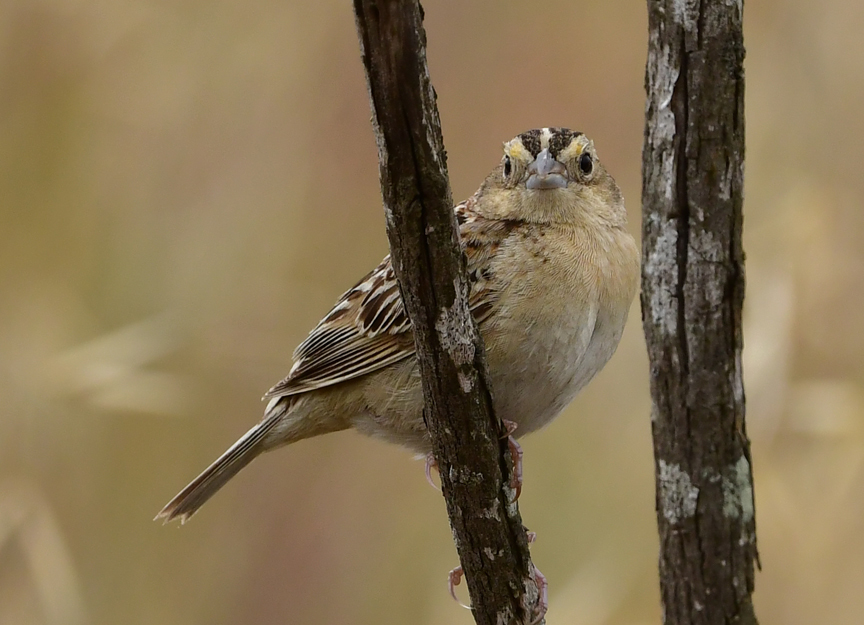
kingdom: Animalia
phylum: Chordata
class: Aves
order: Passeriformes
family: Passerellidae
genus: Ammodramus
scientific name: Ammodramus savannarum
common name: Grasshopper sparrow
